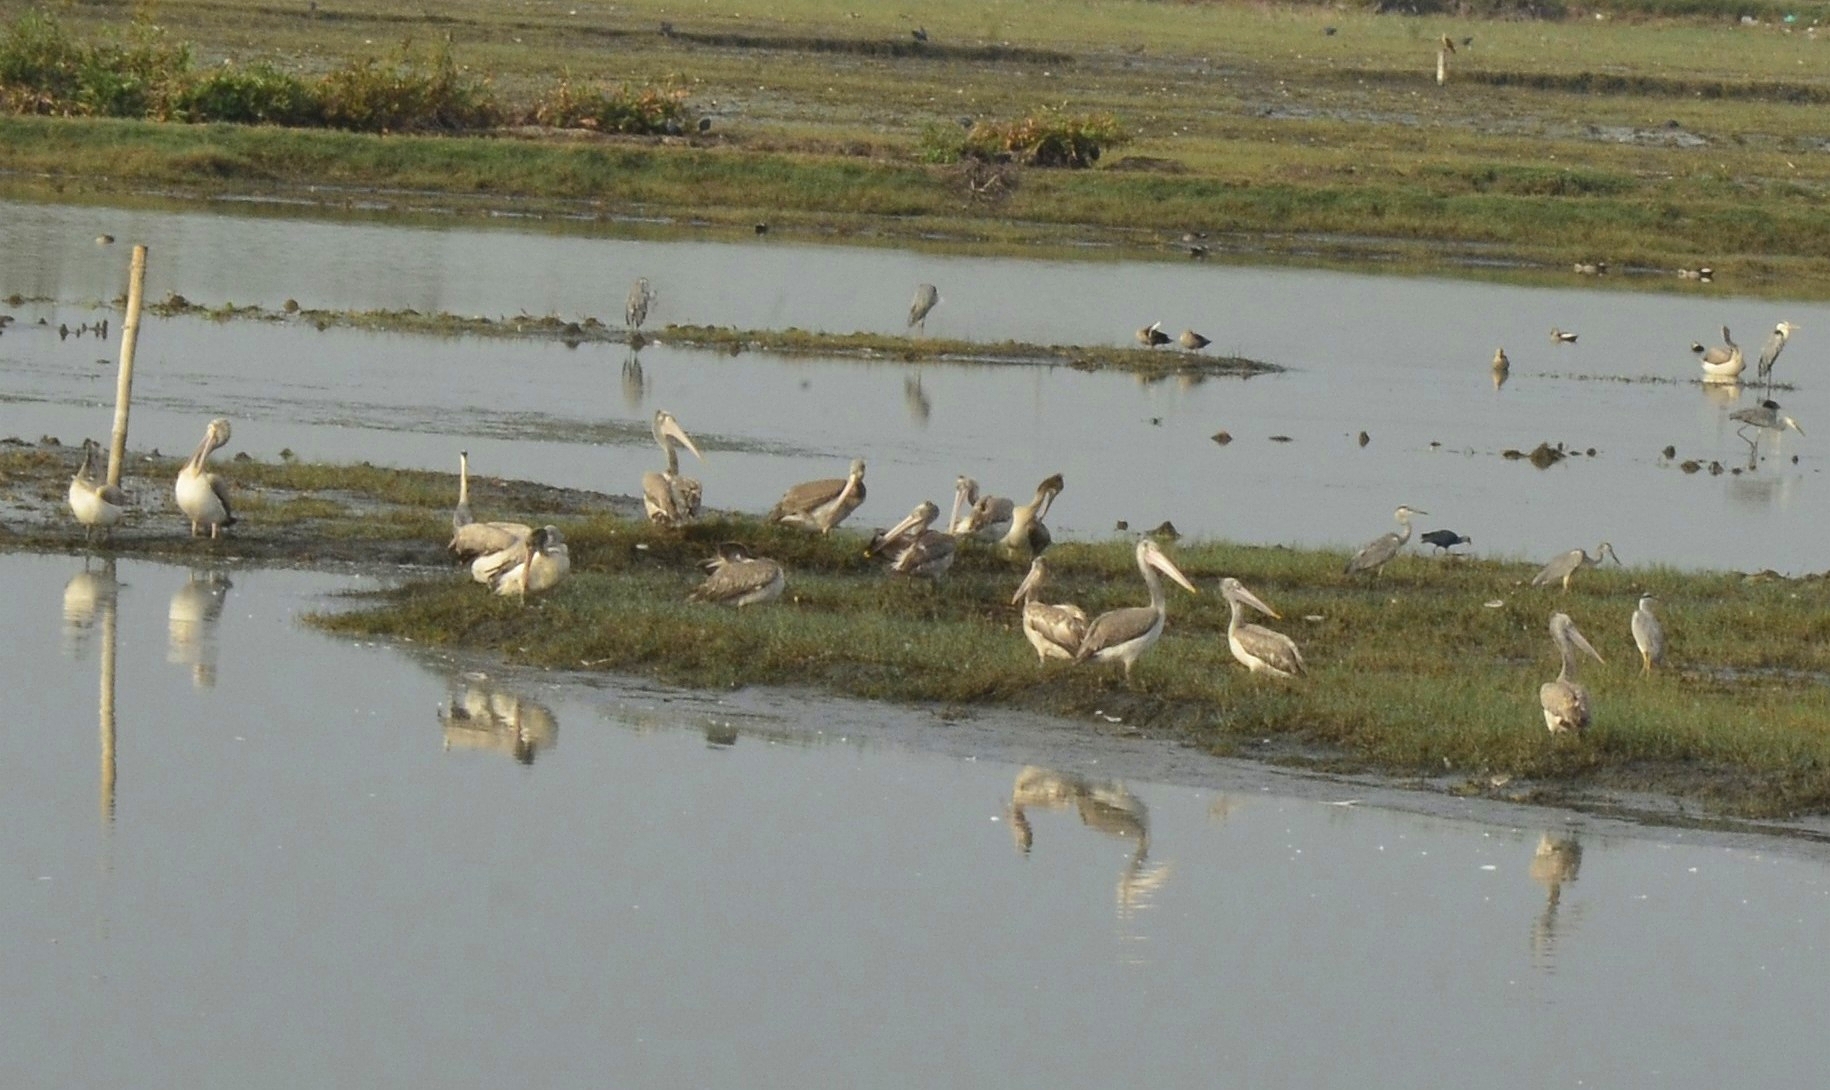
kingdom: Animalia
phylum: Chordata
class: Aves
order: Pelecaniformes
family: Pelecanidae
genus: Pelecanus
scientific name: Pelecanus philippensis
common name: Spot-billed pelican
